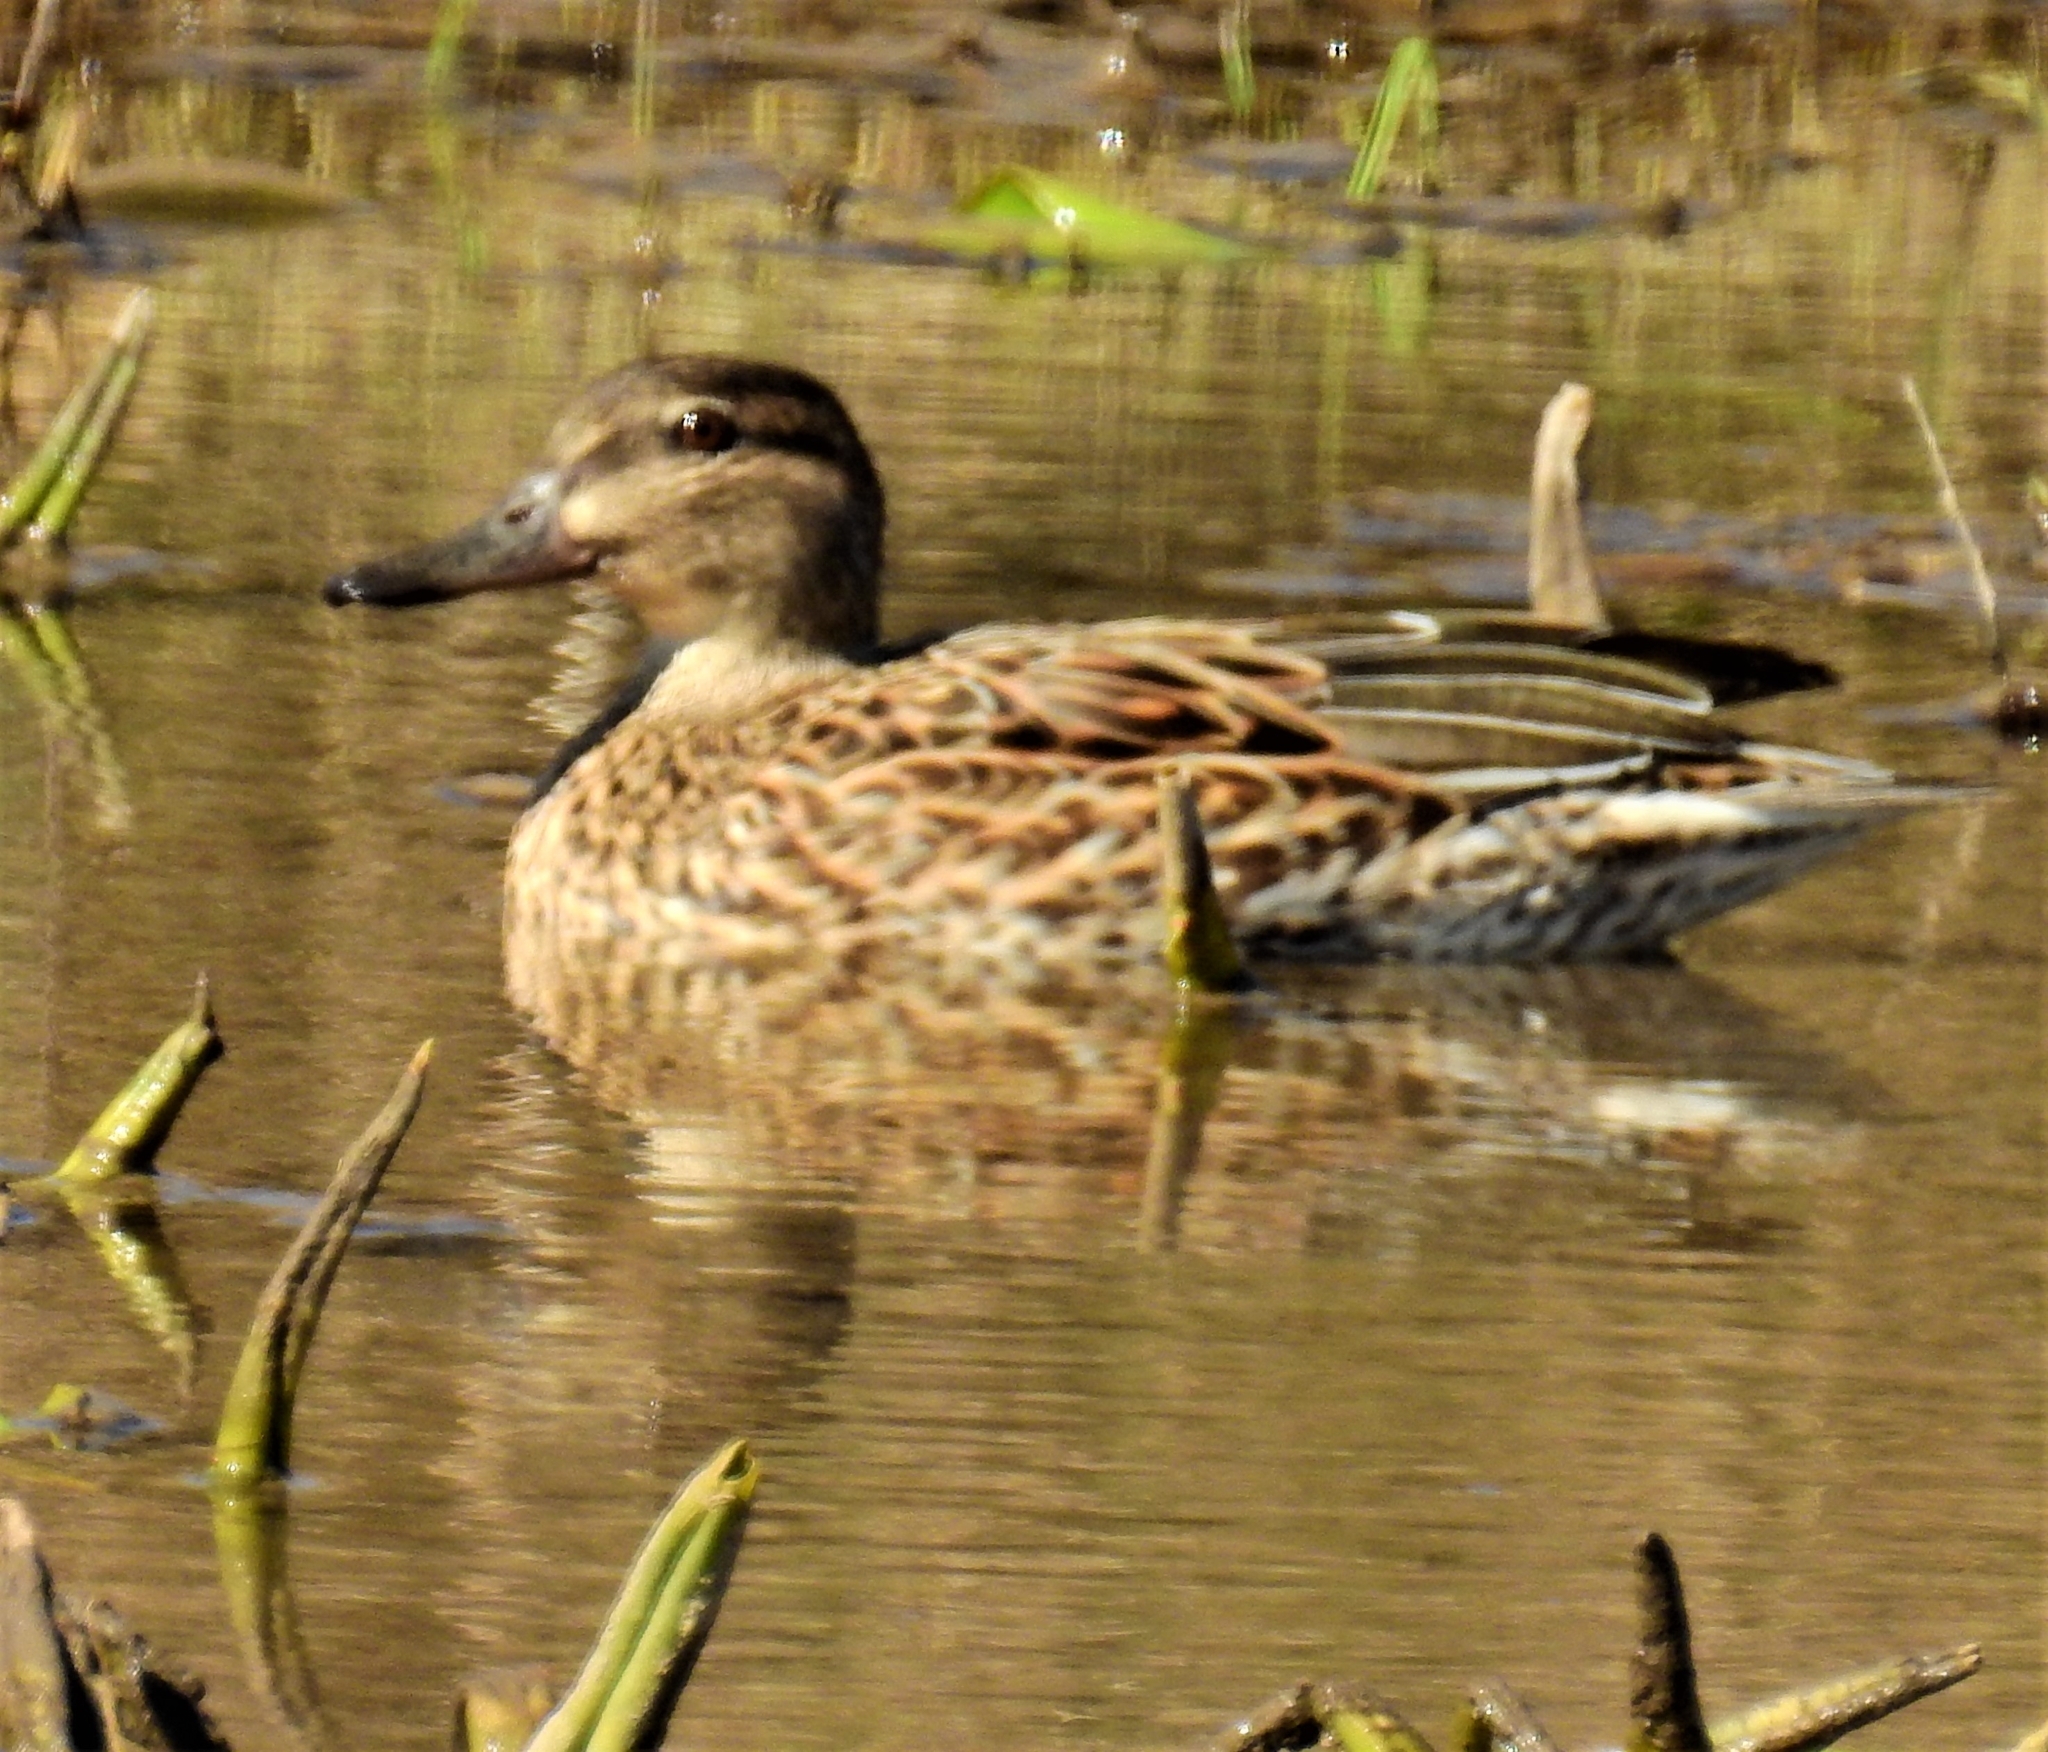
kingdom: Animalia
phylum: Chordata
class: Aves
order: Anseriformes
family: Anatidae
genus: Anas
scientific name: Anas crecca
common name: Eurasian teal
